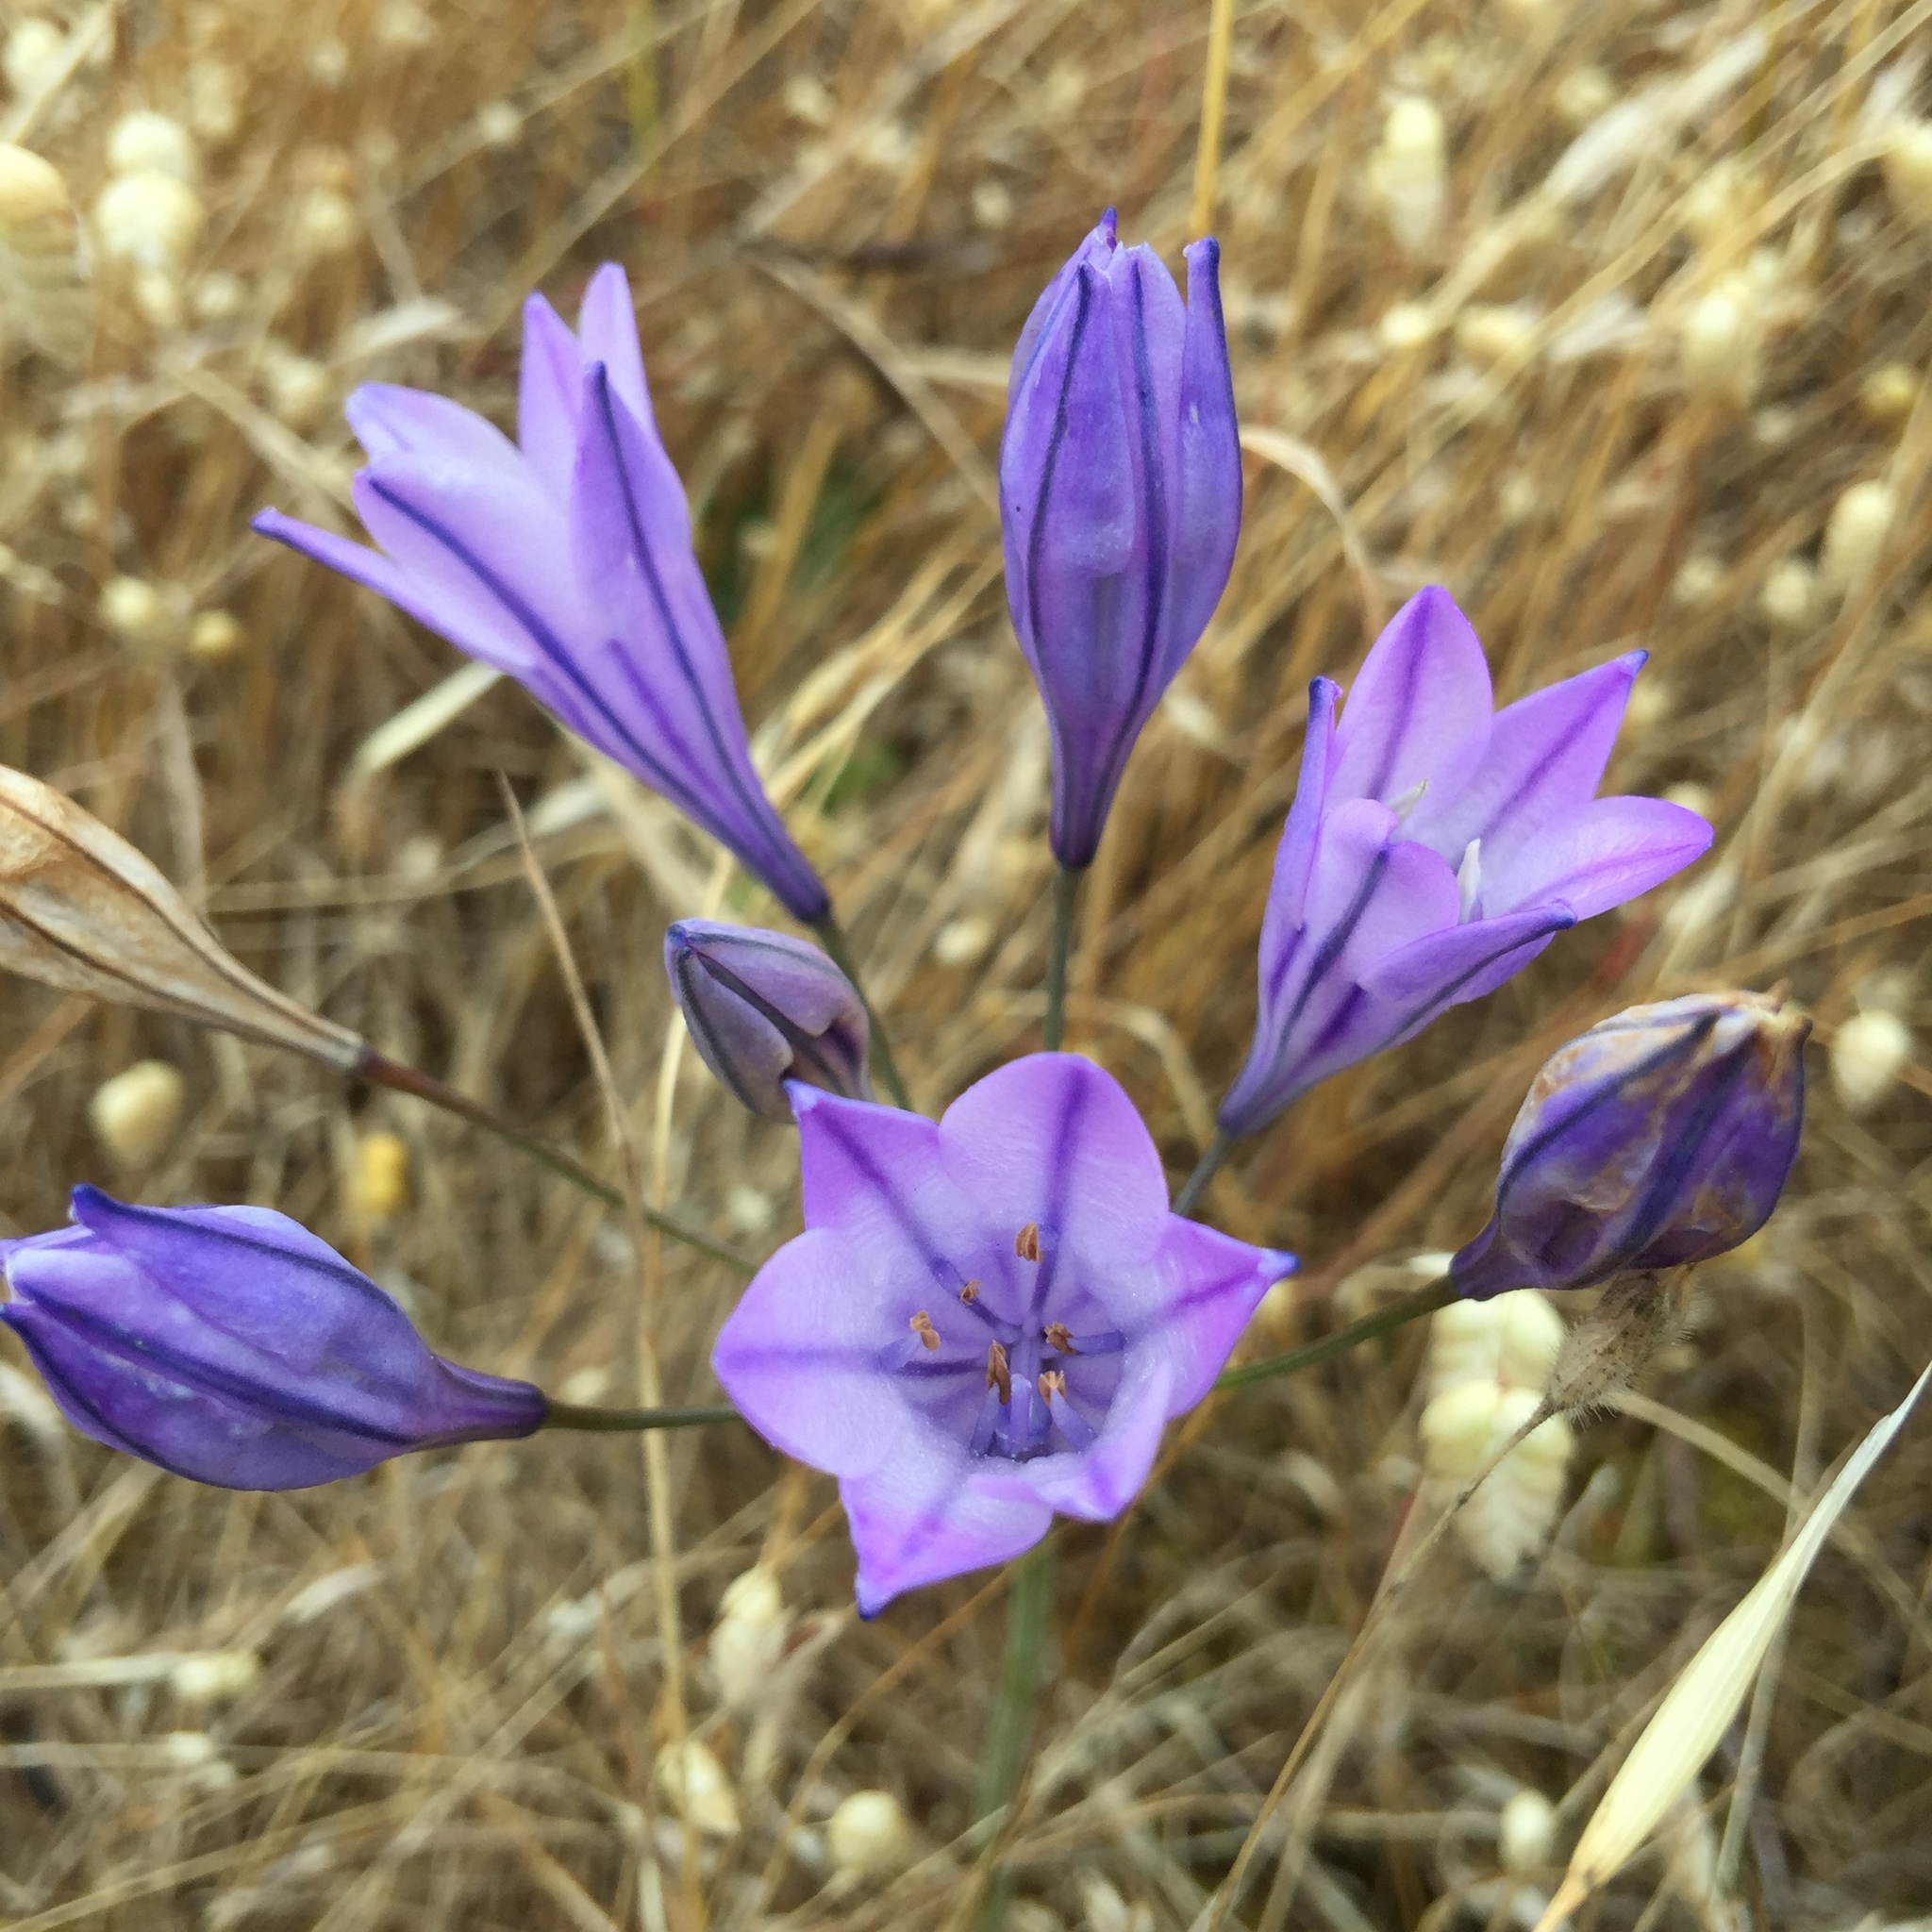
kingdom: Plantae
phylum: Tracheophyta
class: Liliopsida
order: Asparagales
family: Asparagaceae
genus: Triteleia
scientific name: Triteleia laxa
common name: Triplet-lily
